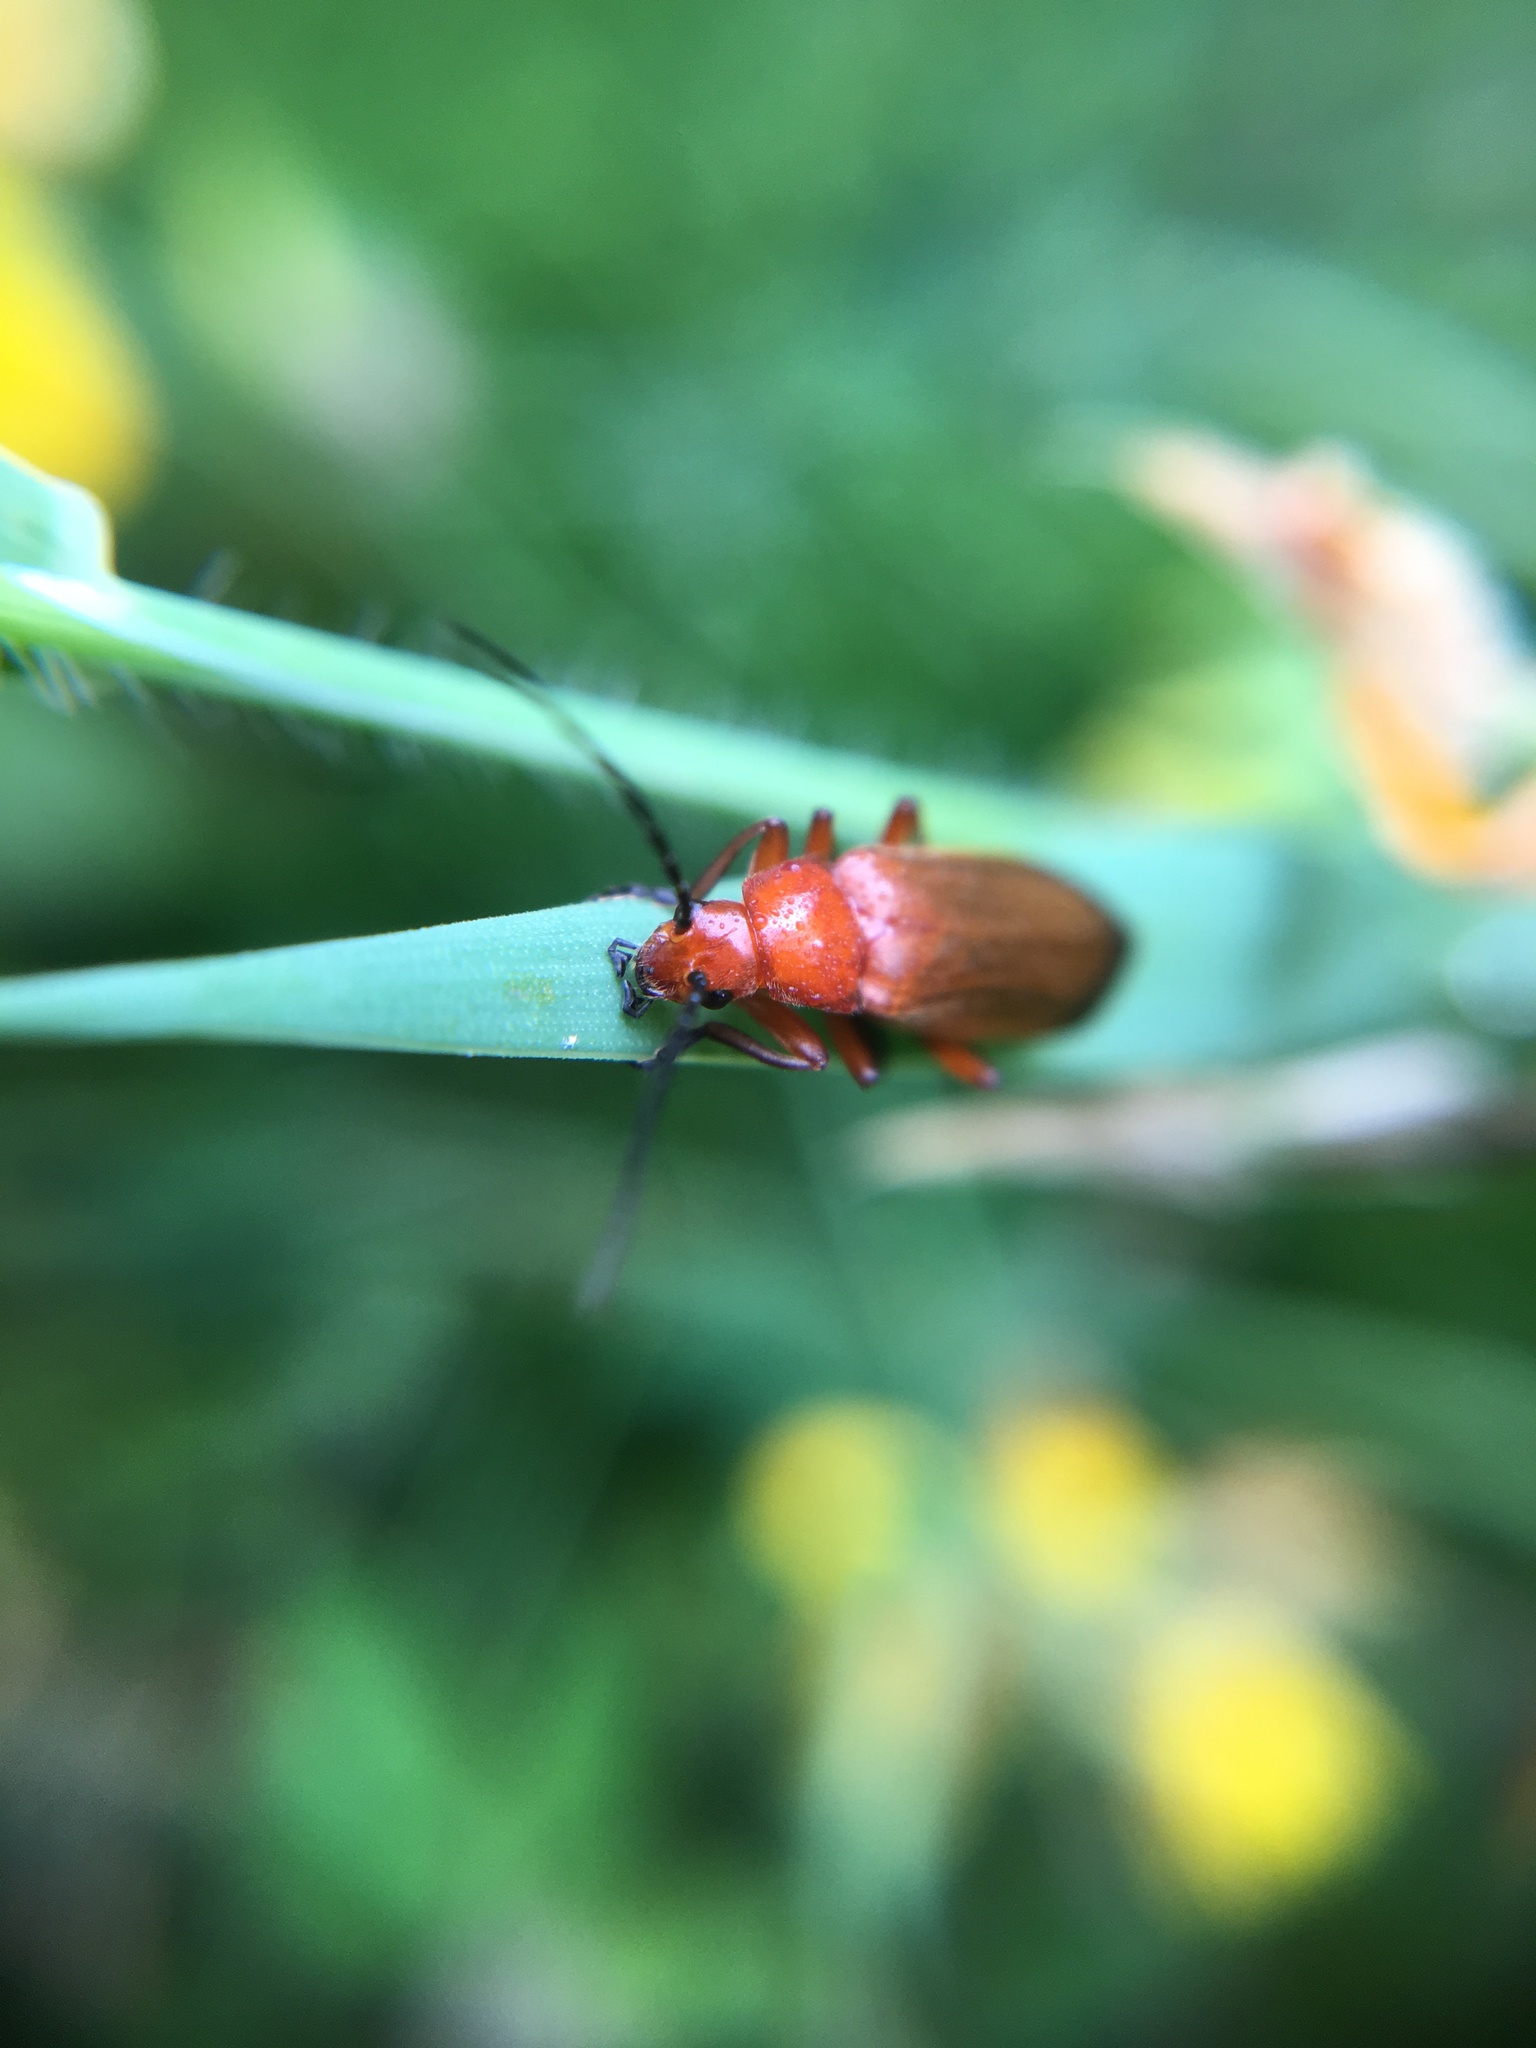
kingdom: Animalia
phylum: Arthropoda
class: Insecta
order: Coleoptera
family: Cantharidae
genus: Rhagonycha
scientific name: Rhagonycha fulva
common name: Common red soldier beetle
